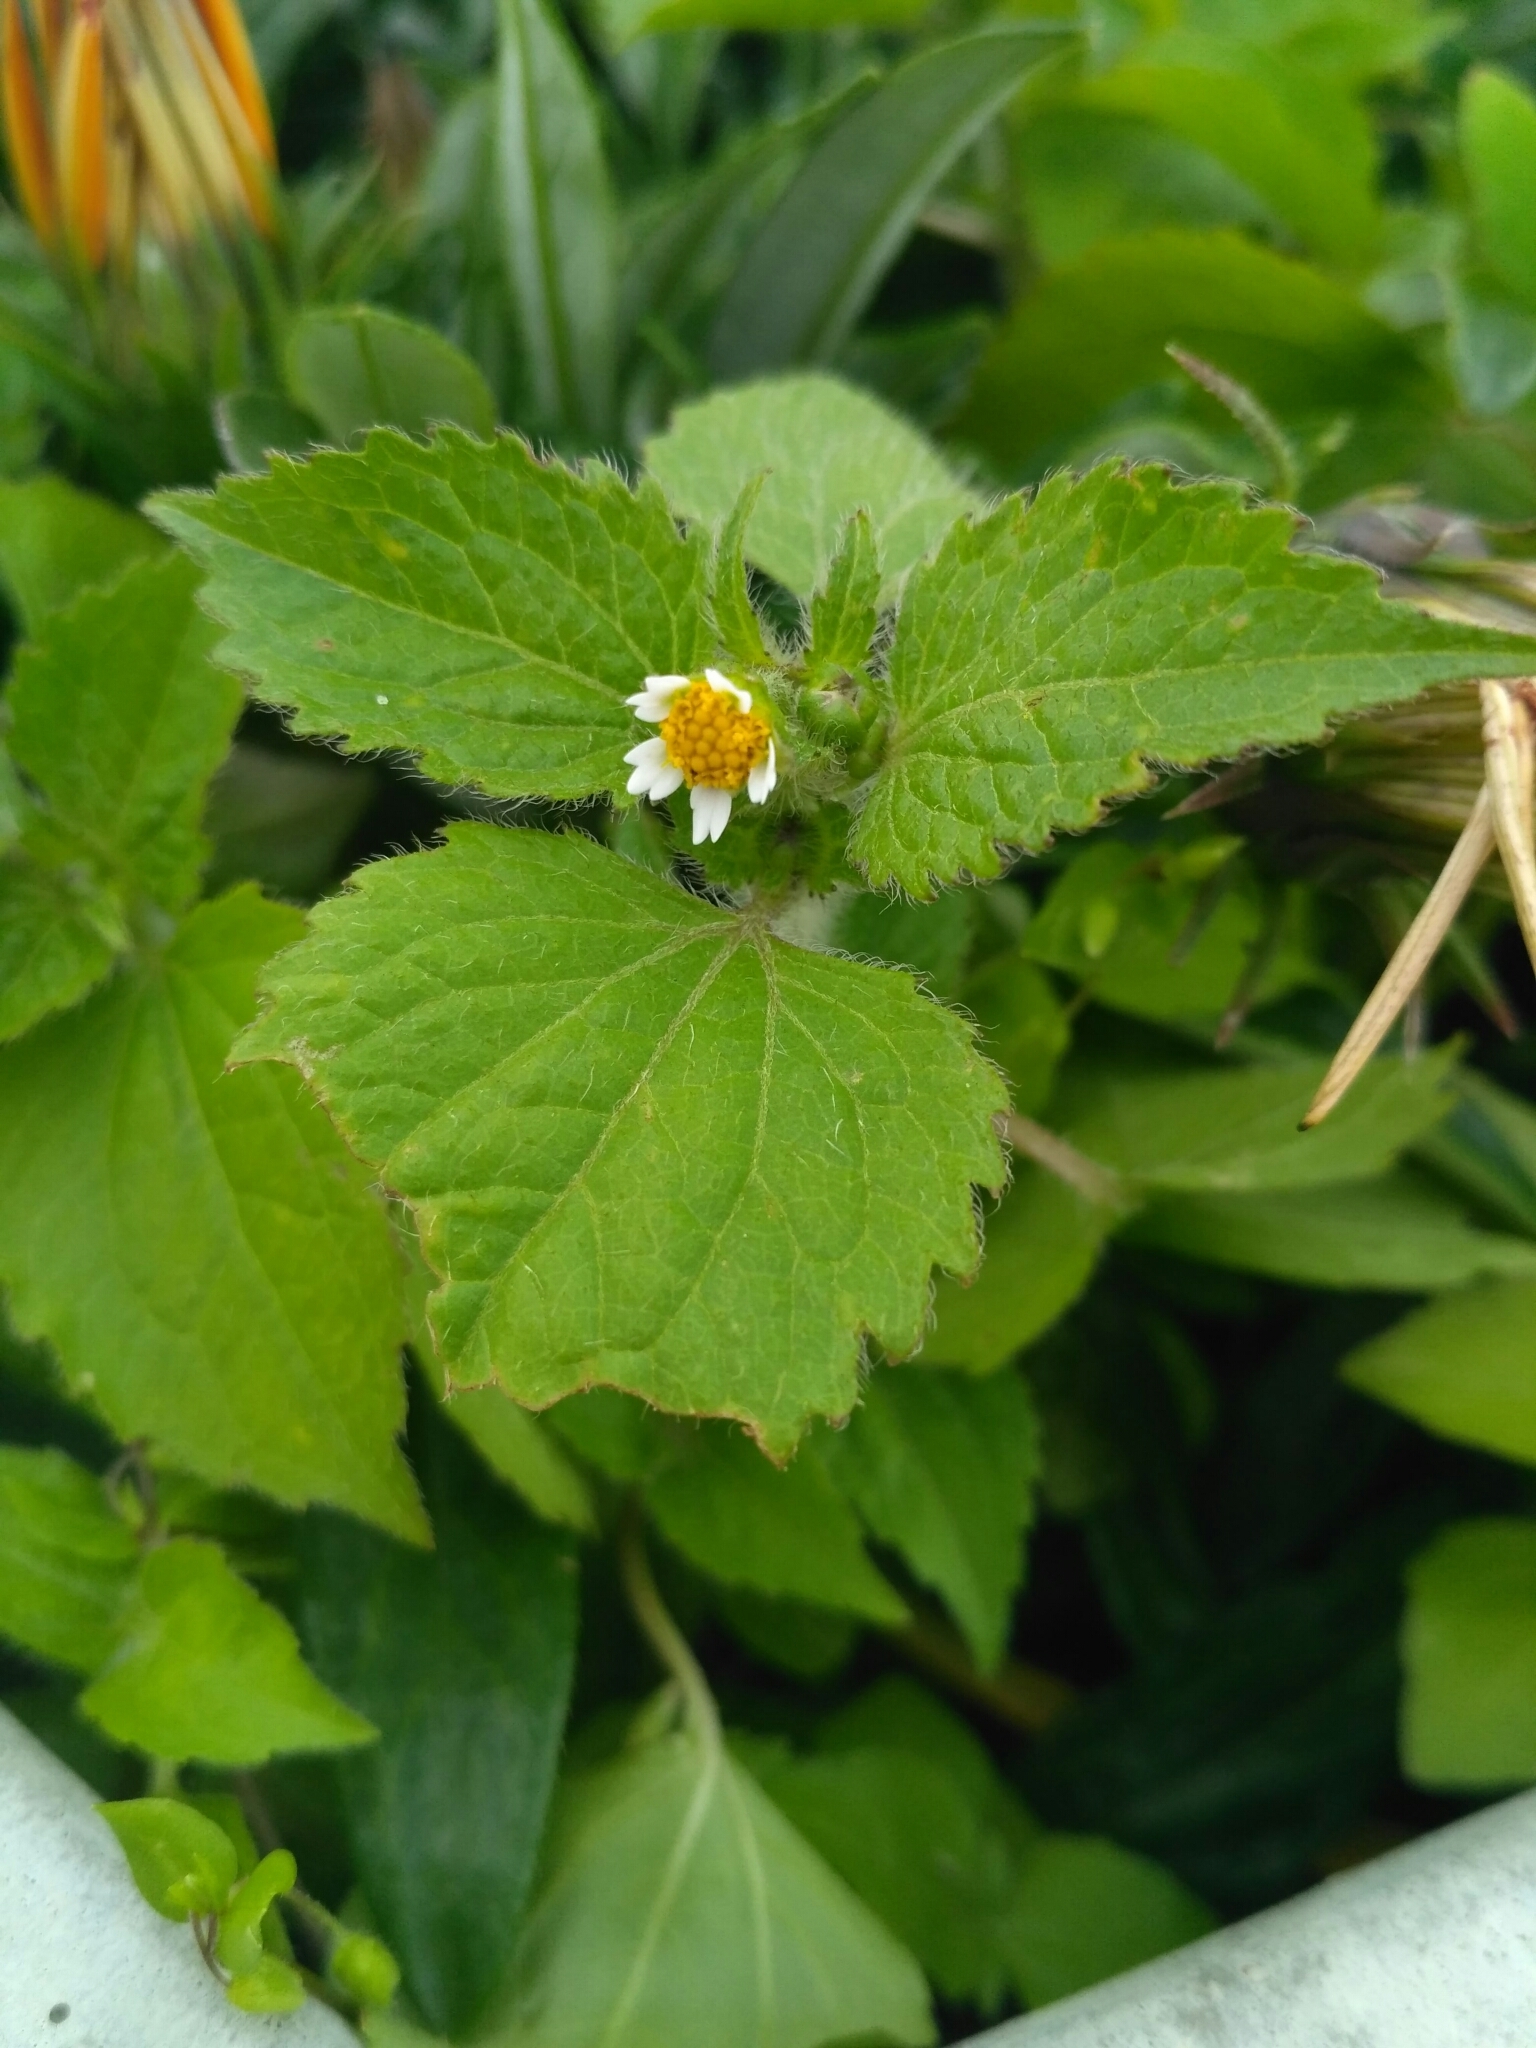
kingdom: Plantae
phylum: Tracheophyta
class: Magnoliopsida
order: Asterales
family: Asteraceae
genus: Galinsoga
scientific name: Galinsoga quadriradiata
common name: Shaggy soldier
